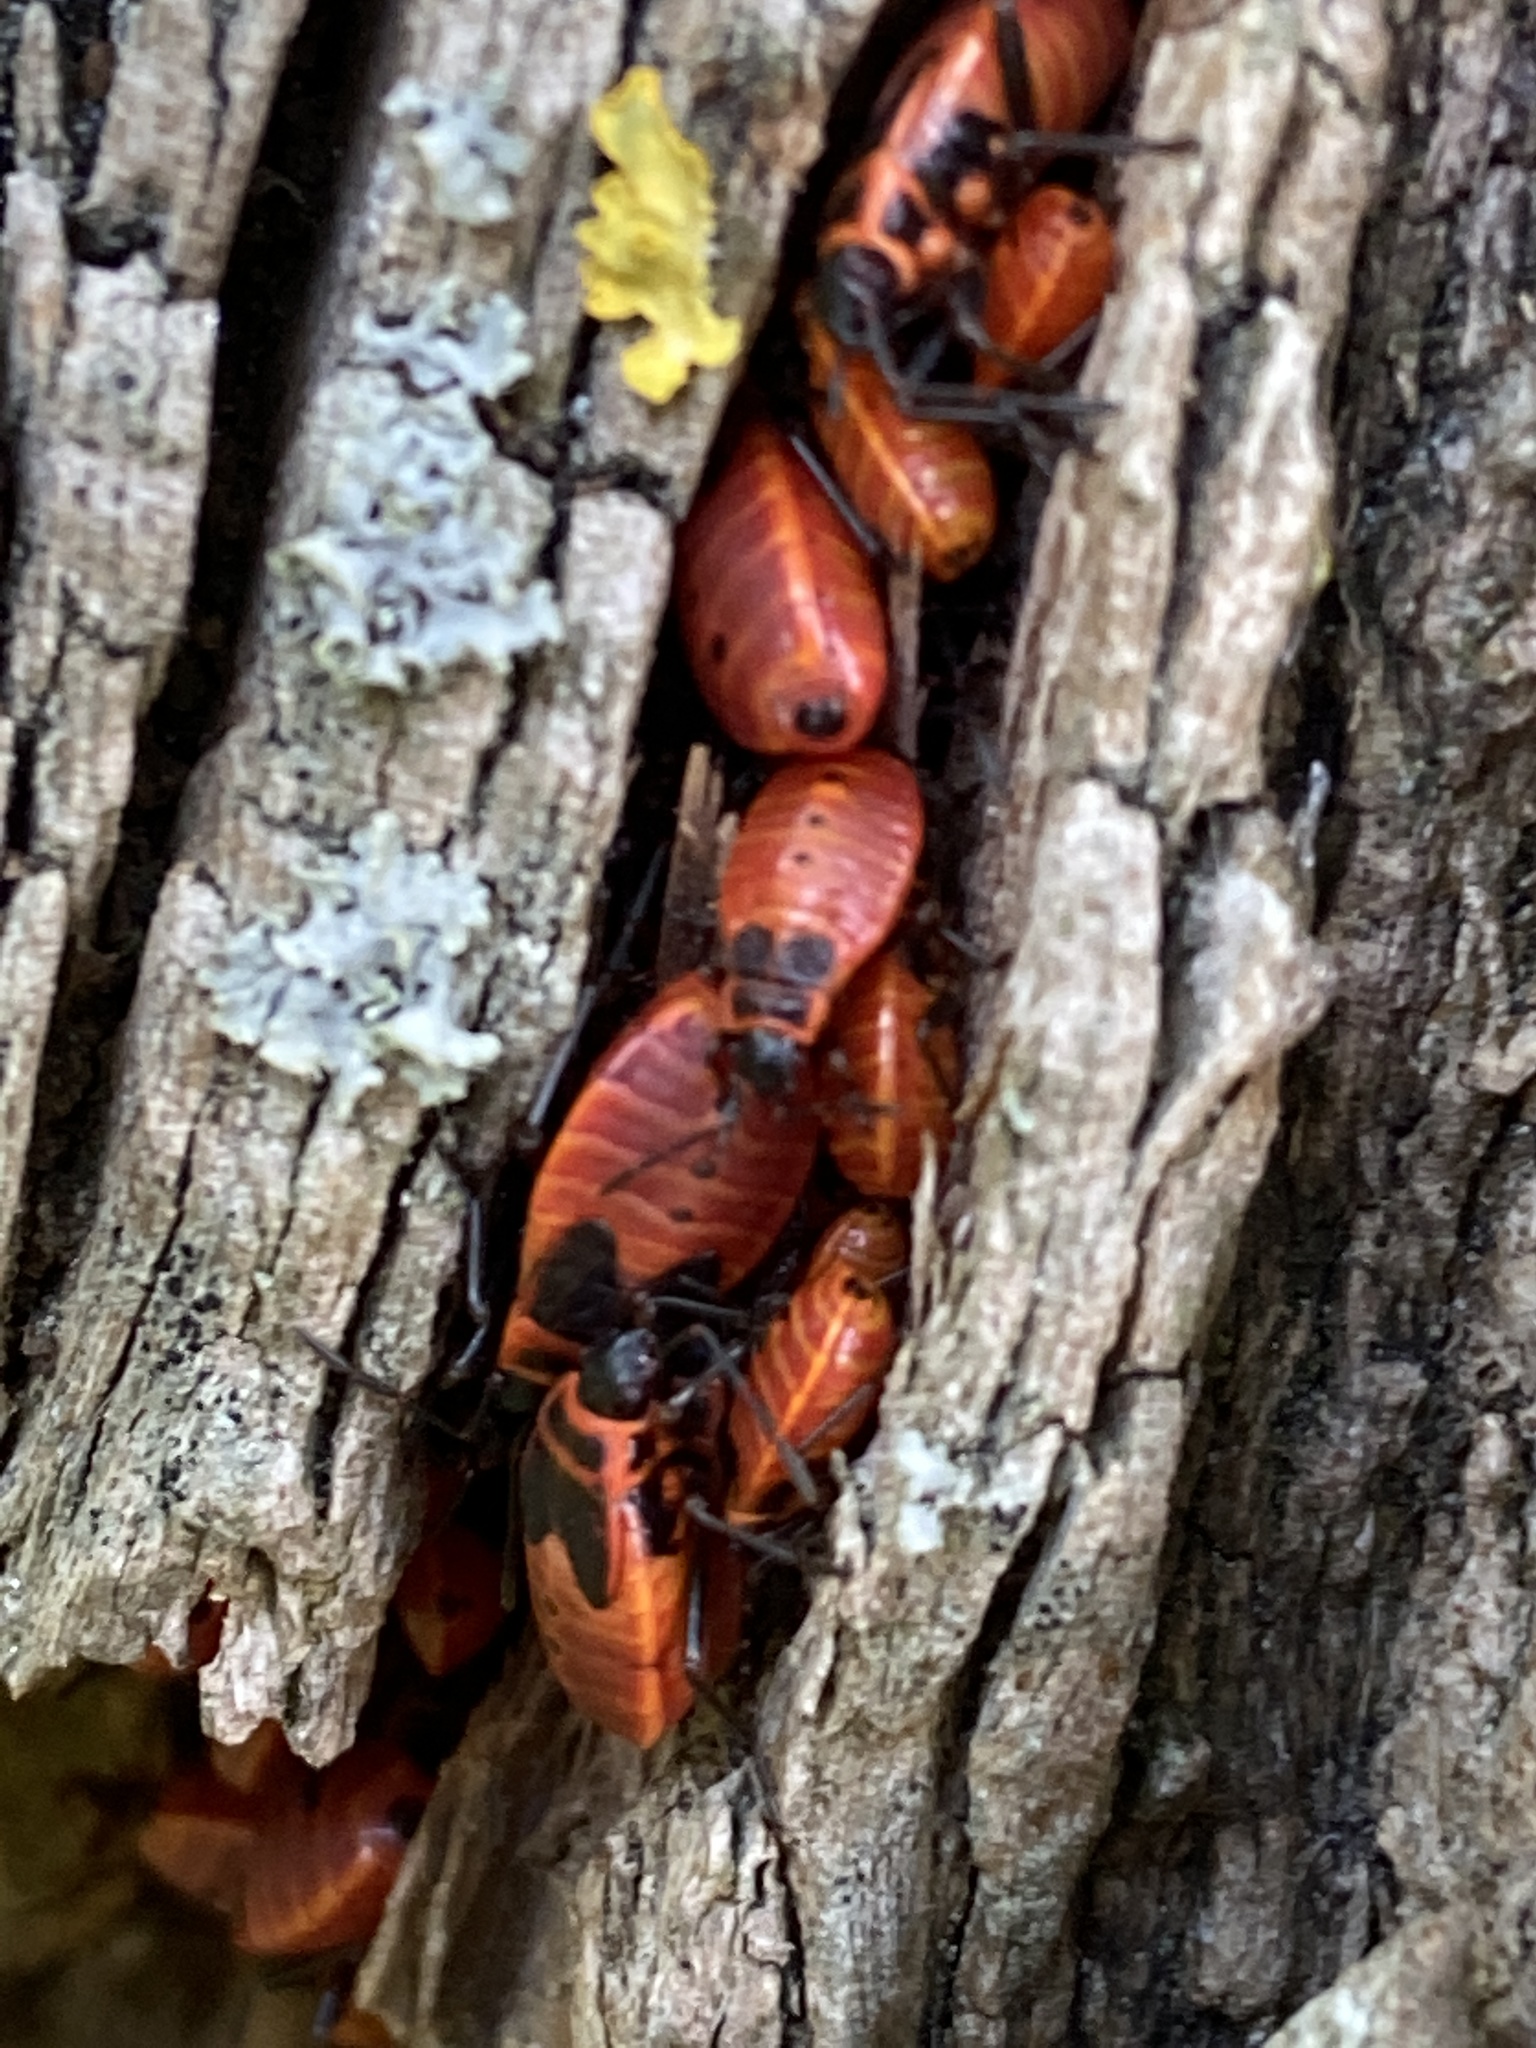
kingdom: Animalia
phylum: Arthropoda
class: Insecta
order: Hemiptera
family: Pyrrhocoridae
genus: Pyrrhocoris
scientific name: Pyrrhocoris apterus
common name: Firebug
